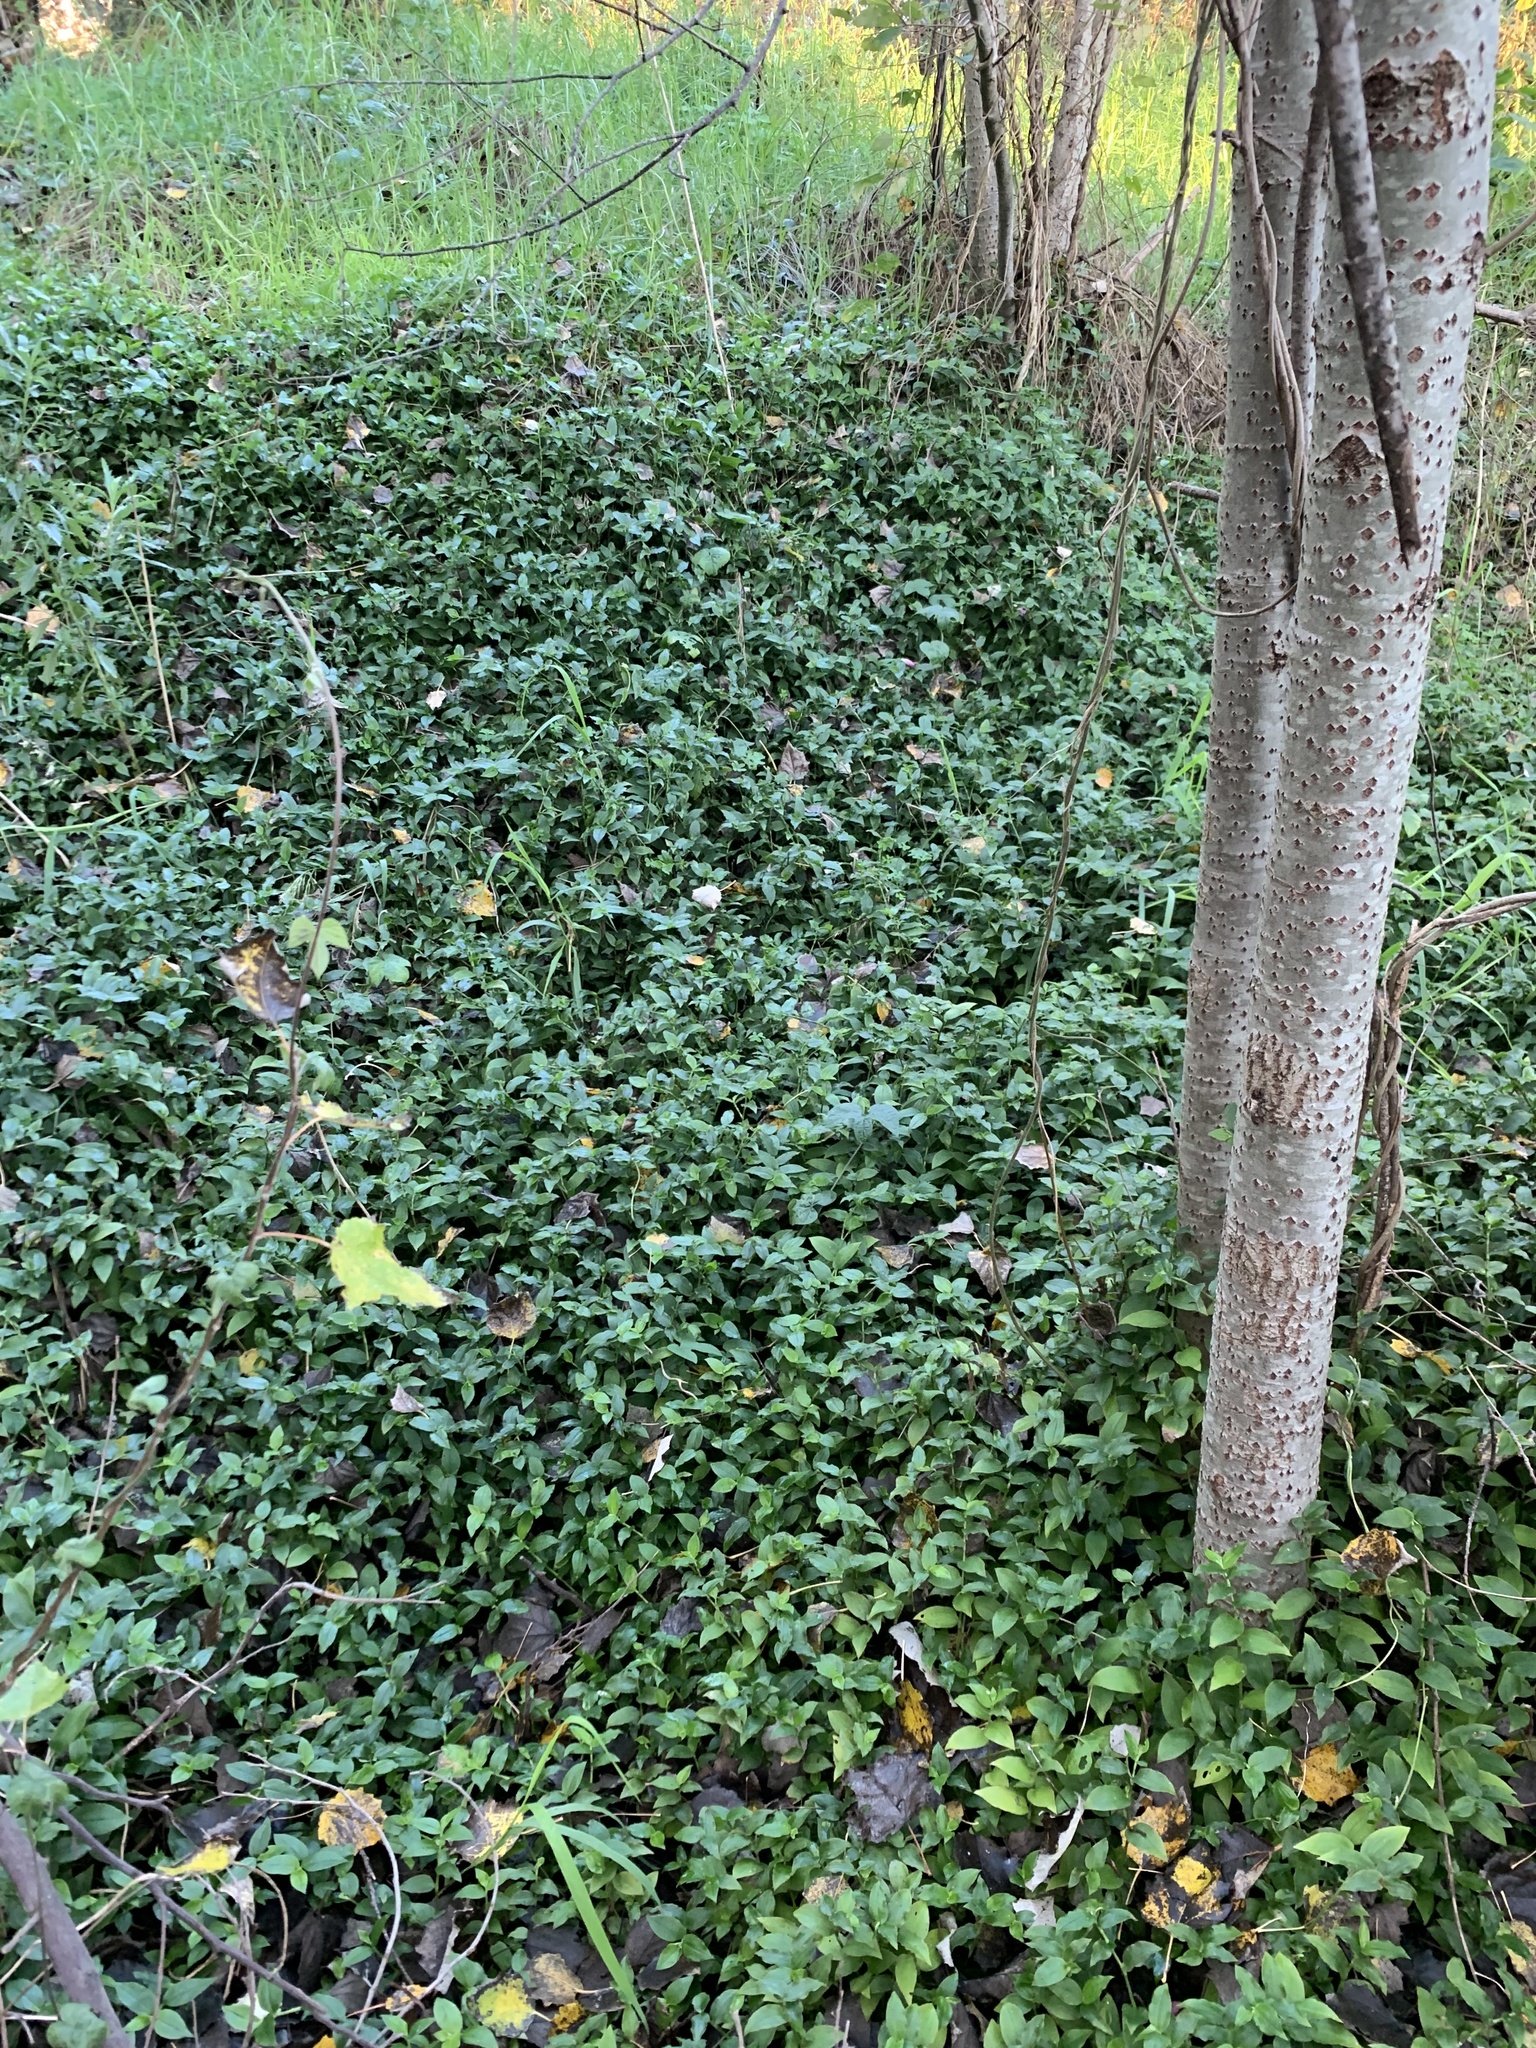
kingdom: Plantae
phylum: Tracheophyta
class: Liliopsida
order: Commelinales
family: Commelinaceae
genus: Tradescantia
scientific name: Tradescantia fluminensis
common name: Wandering-jew
